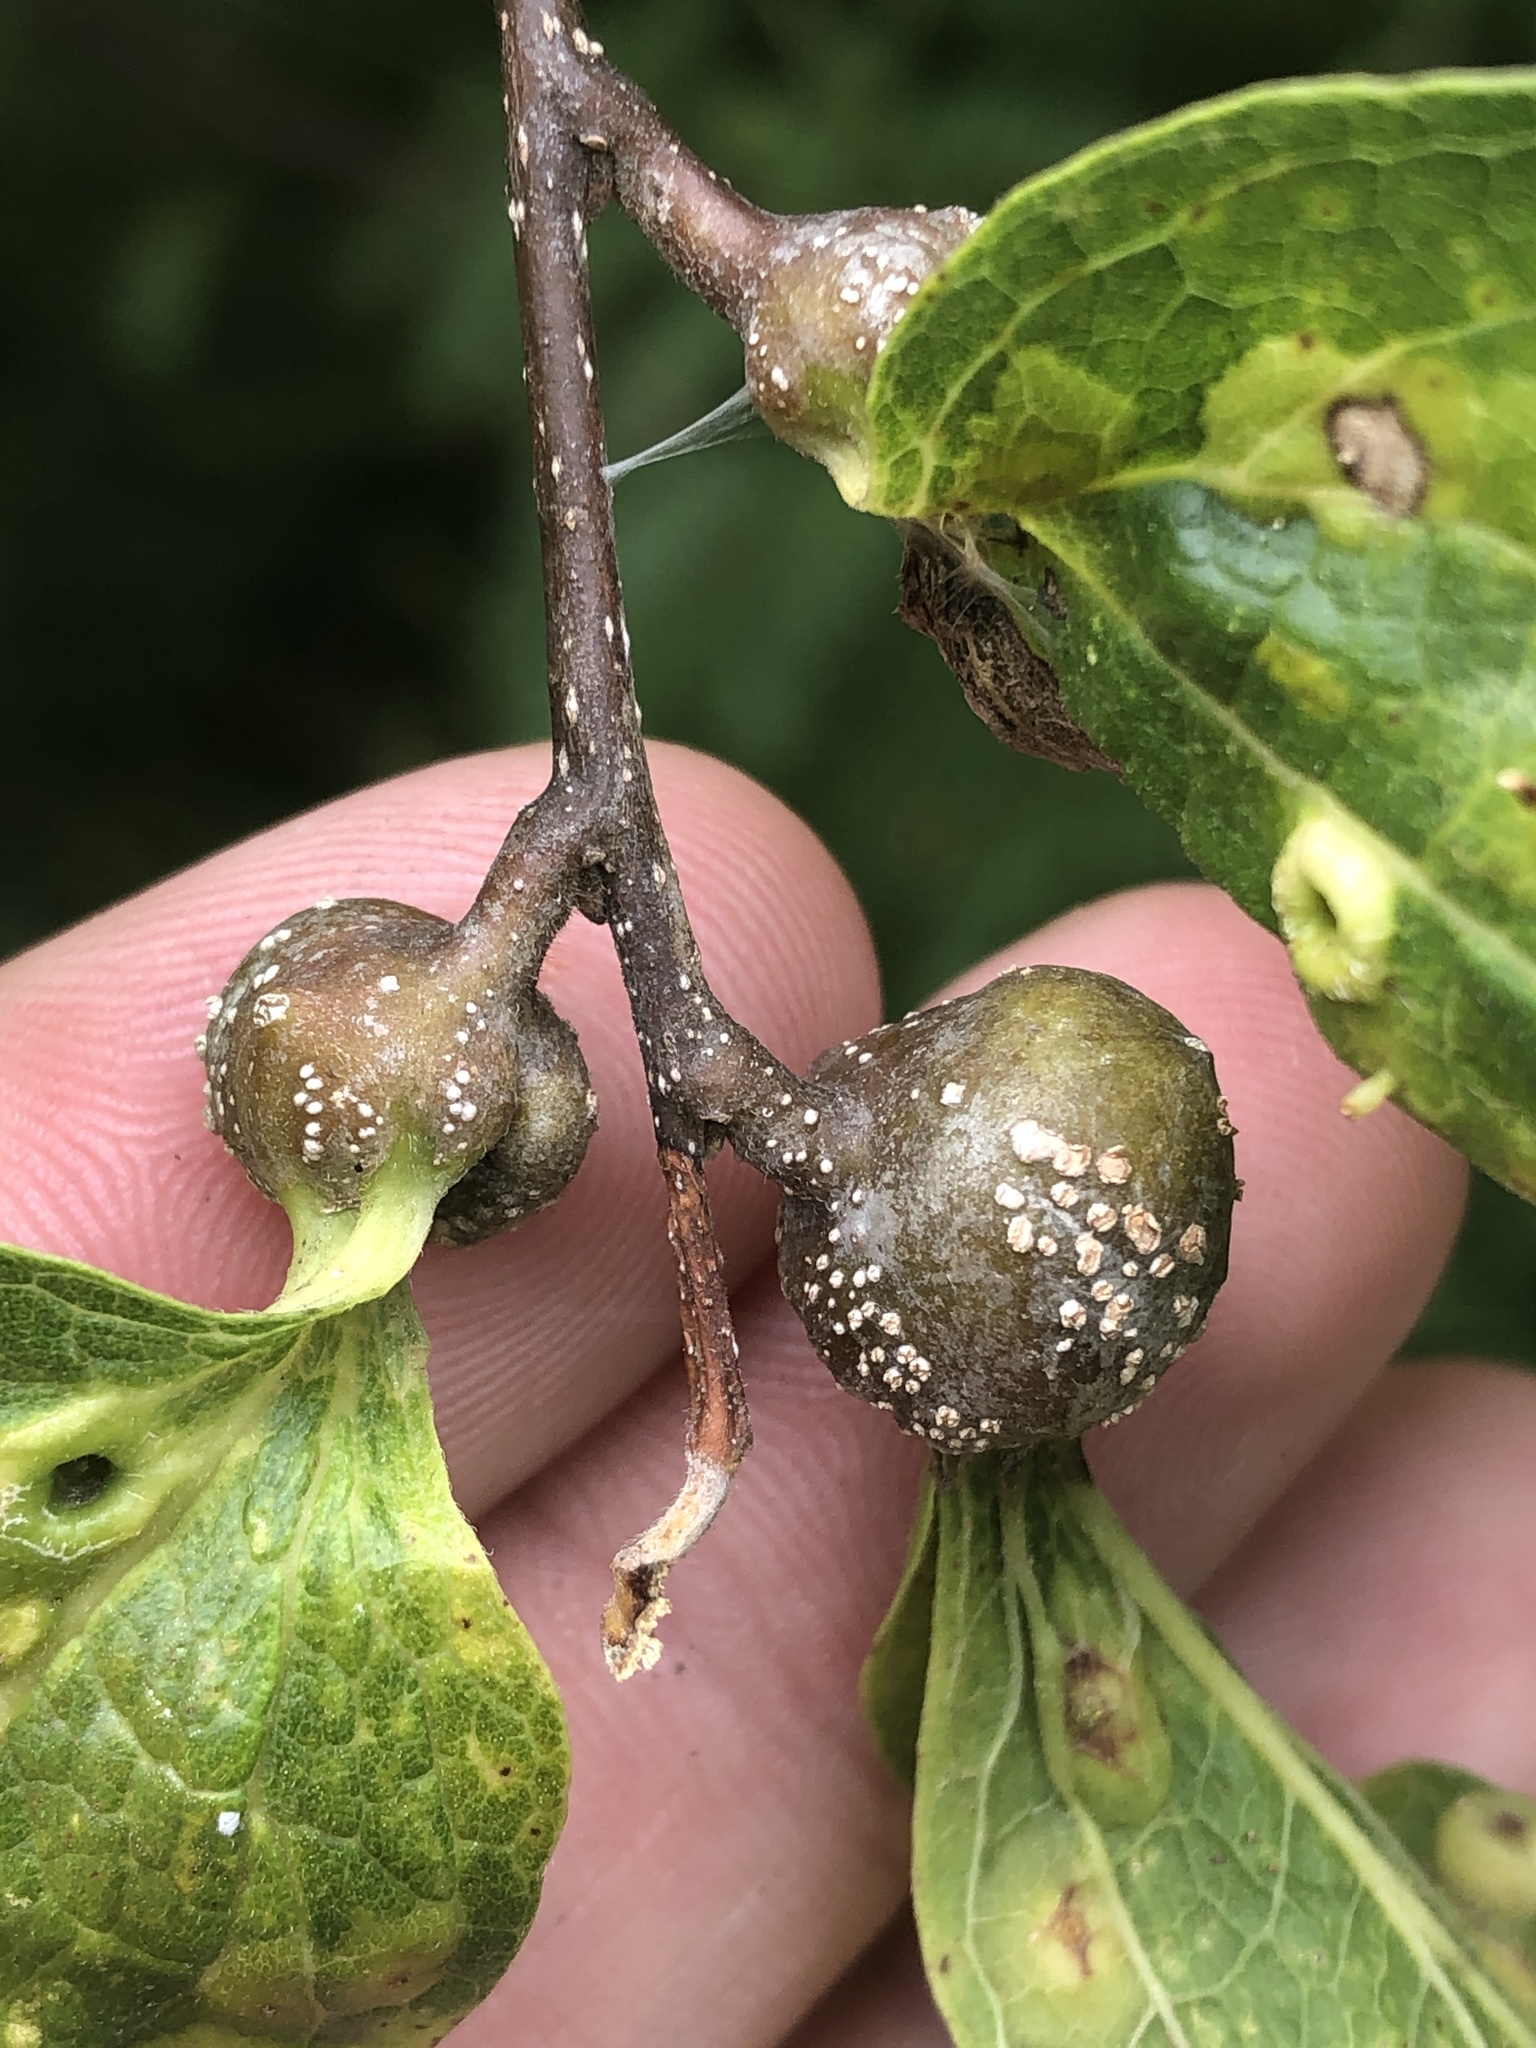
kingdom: Animalia
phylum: Arthropoda
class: Insecta
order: Hemiptera
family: Aphalaridae
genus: Pachypsylla
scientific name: Pachypsylla venusta
